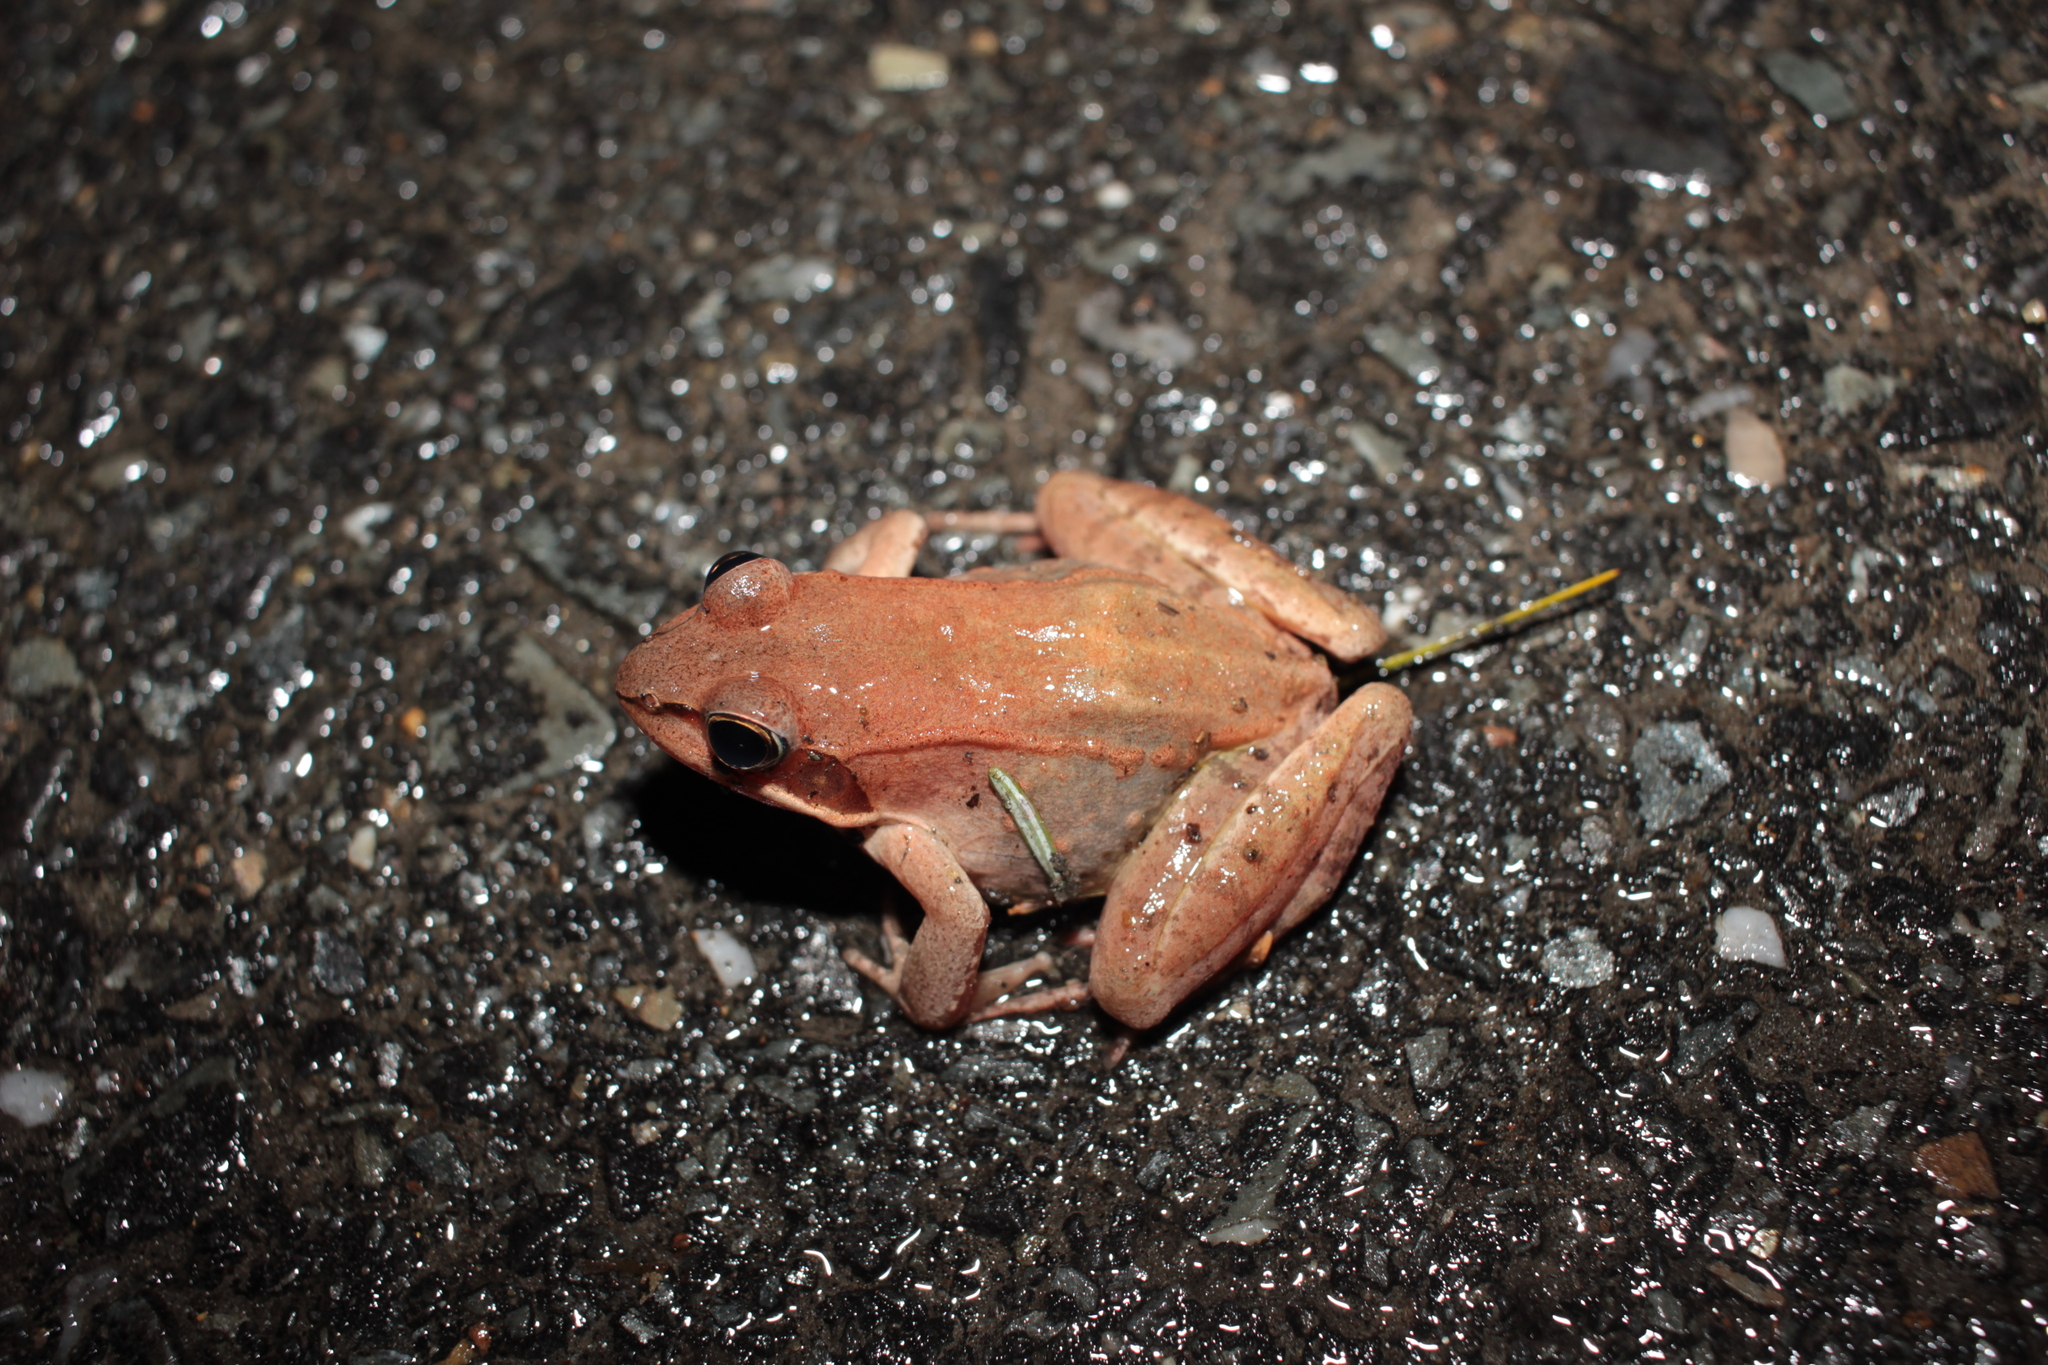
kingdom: Animalia
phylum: Chordata
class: Amphibia
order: Anura
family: Ranidae
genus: Lithobates
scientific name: Lithobates sylvaticus
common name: Wood frog
